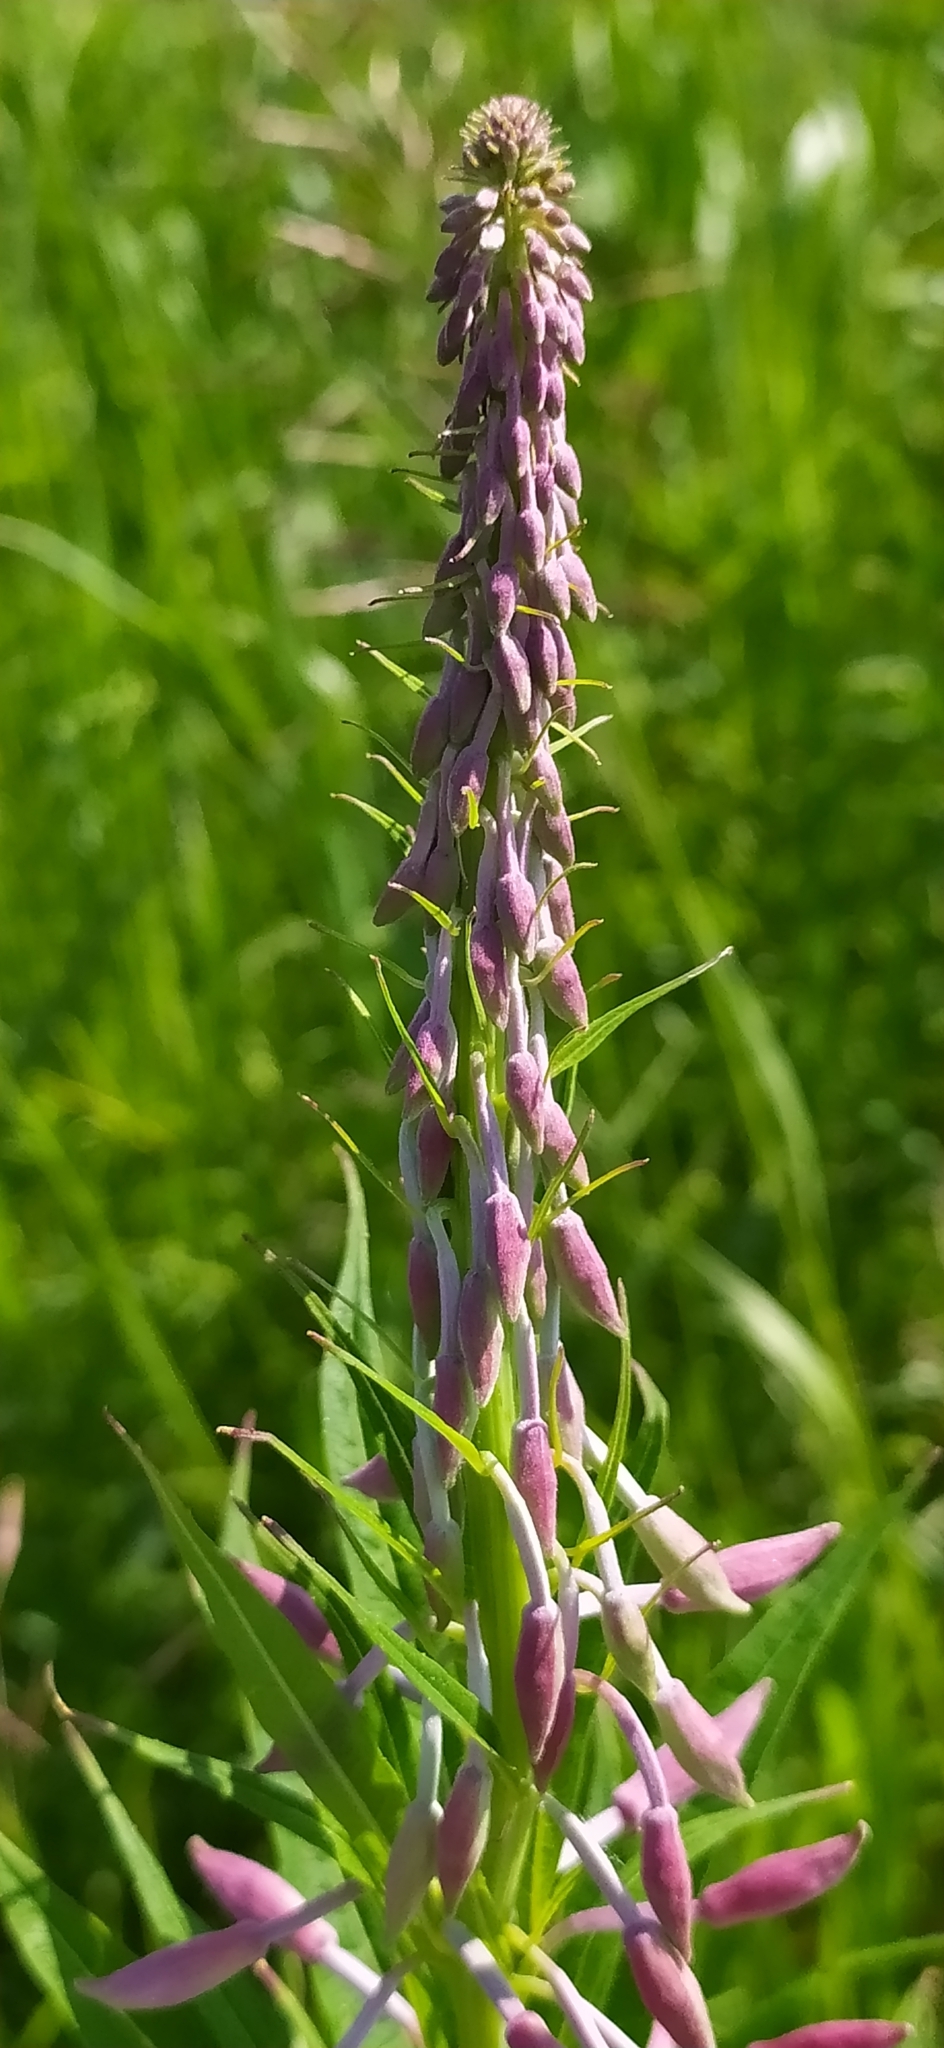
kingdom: Plantae
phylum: Tracheophyta
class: Magnoliopsida
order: Myrtales
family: Onagraceae
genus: Chamaenerion
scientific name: Chamaenerion angustifolium
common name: Fireweed
